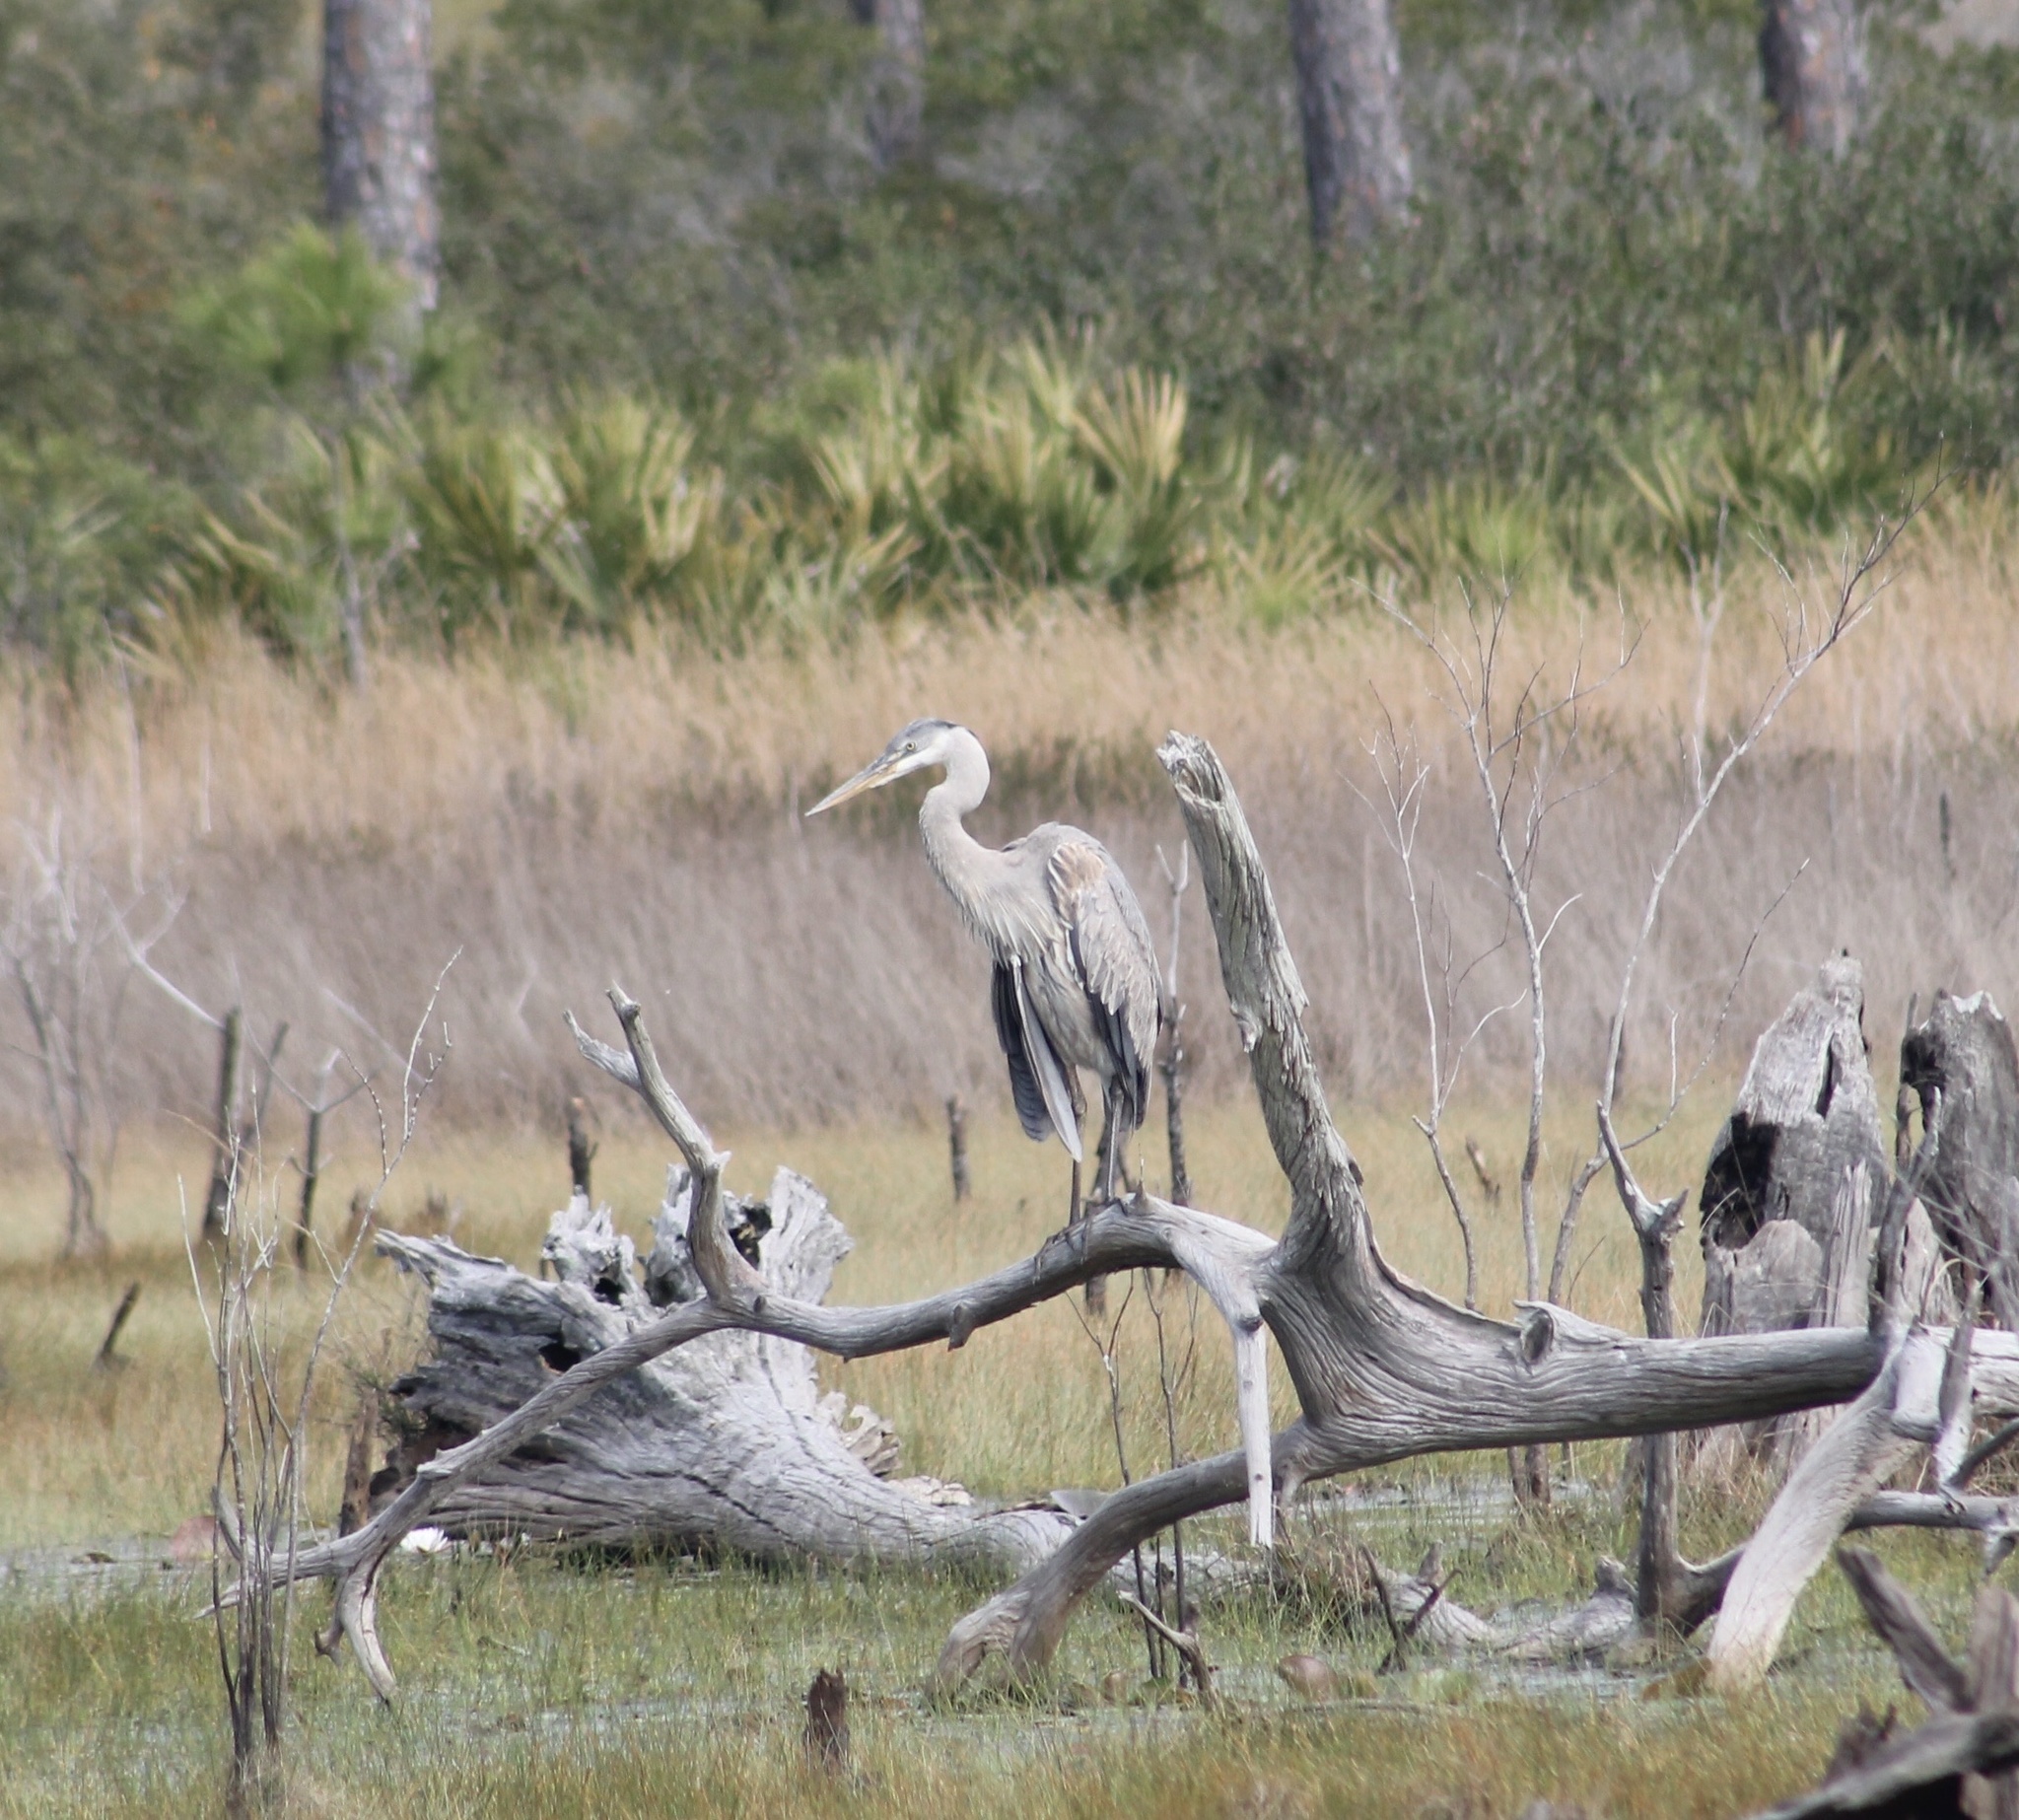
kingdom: Animalia
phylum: Chordata
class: Aves
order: Pelecaniformes
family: Ardeidae
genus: Ardea
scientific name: Ardea herodias
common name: Great blue heron
